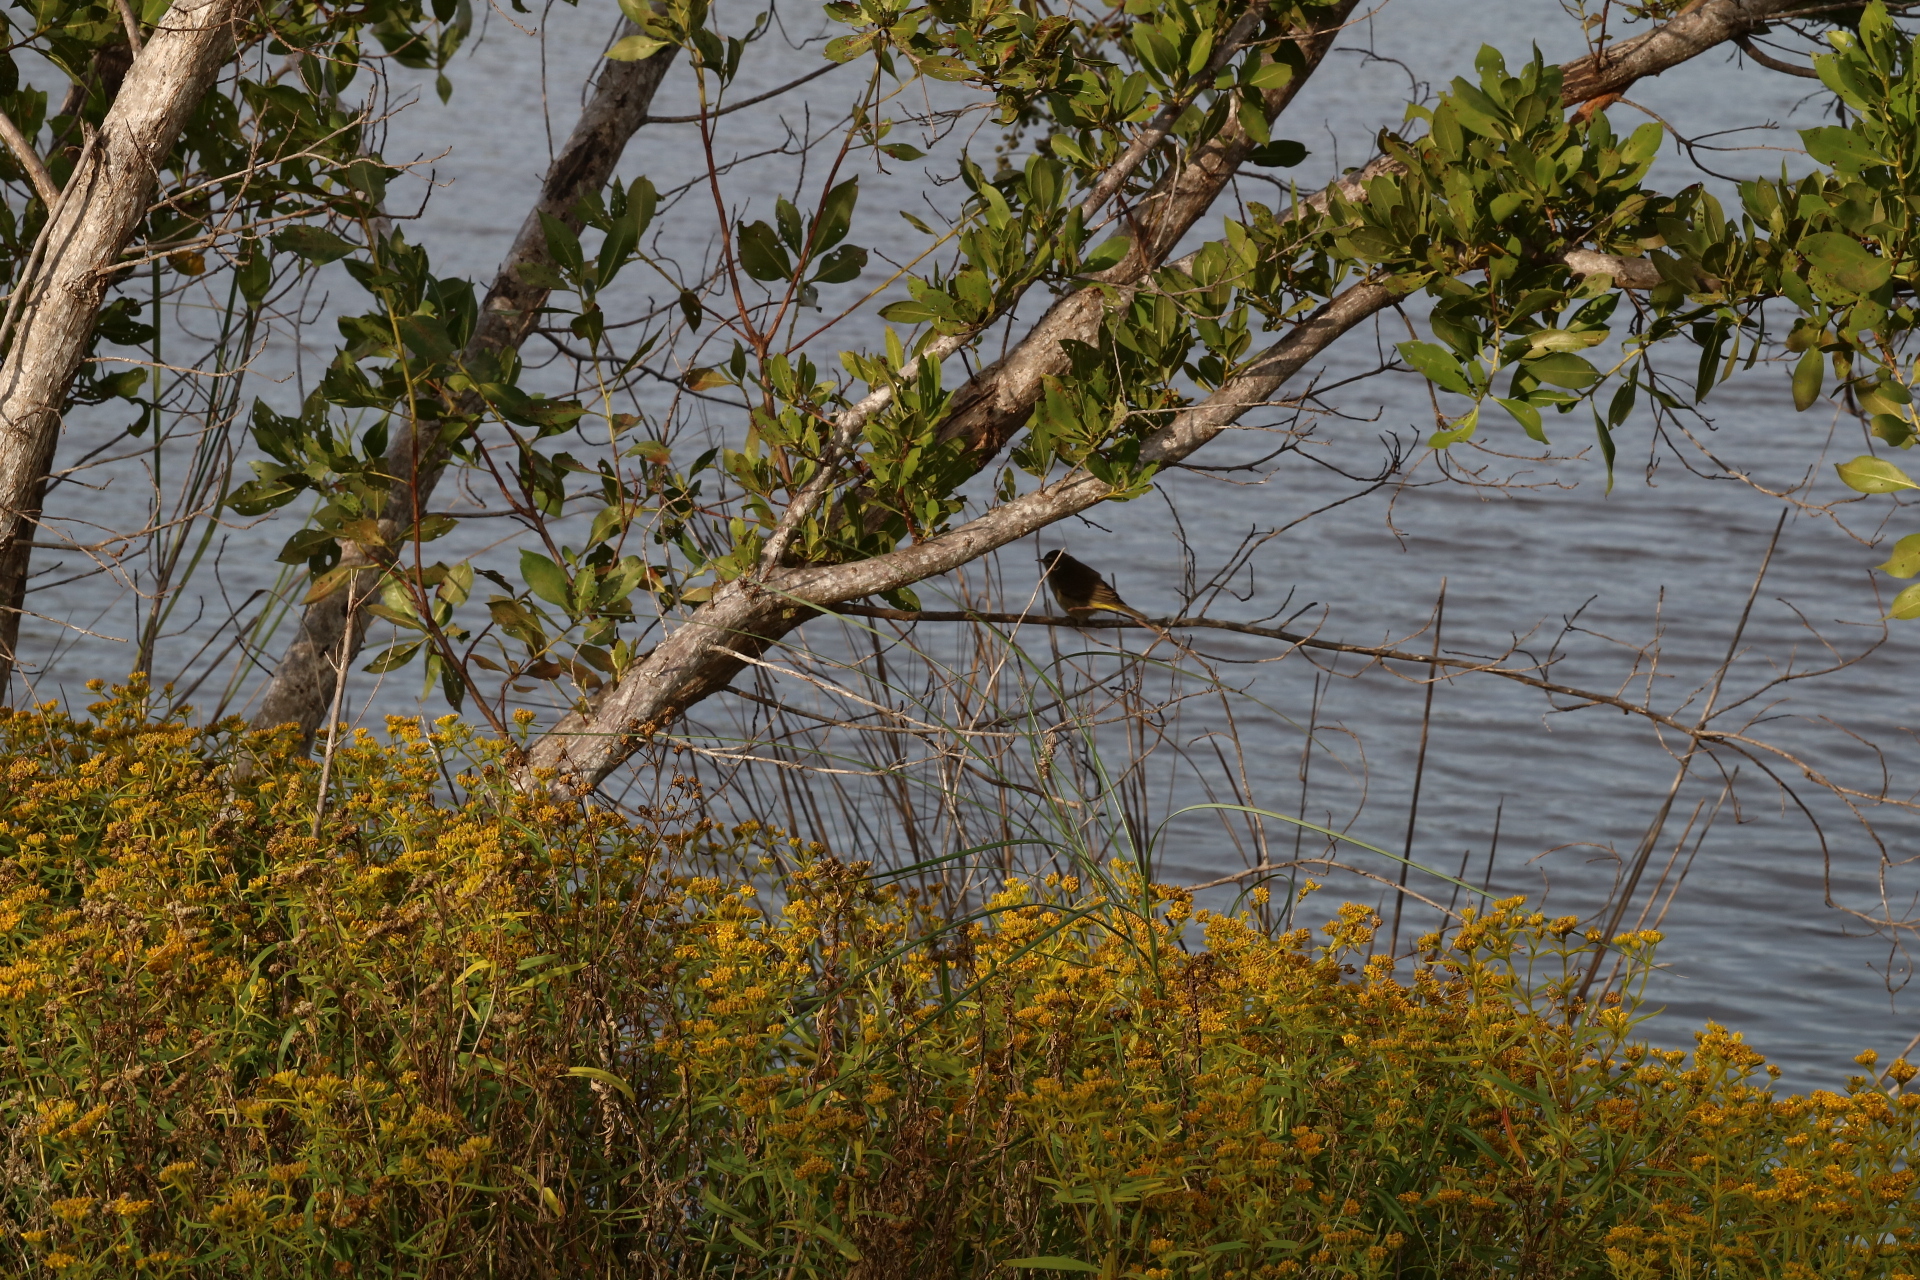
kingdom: Animalia
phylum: Chordata
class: Aves
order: Passeriformes
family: Parulidae
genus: Setophaga
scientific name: Setophaga palmarum
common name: Palm warbler
